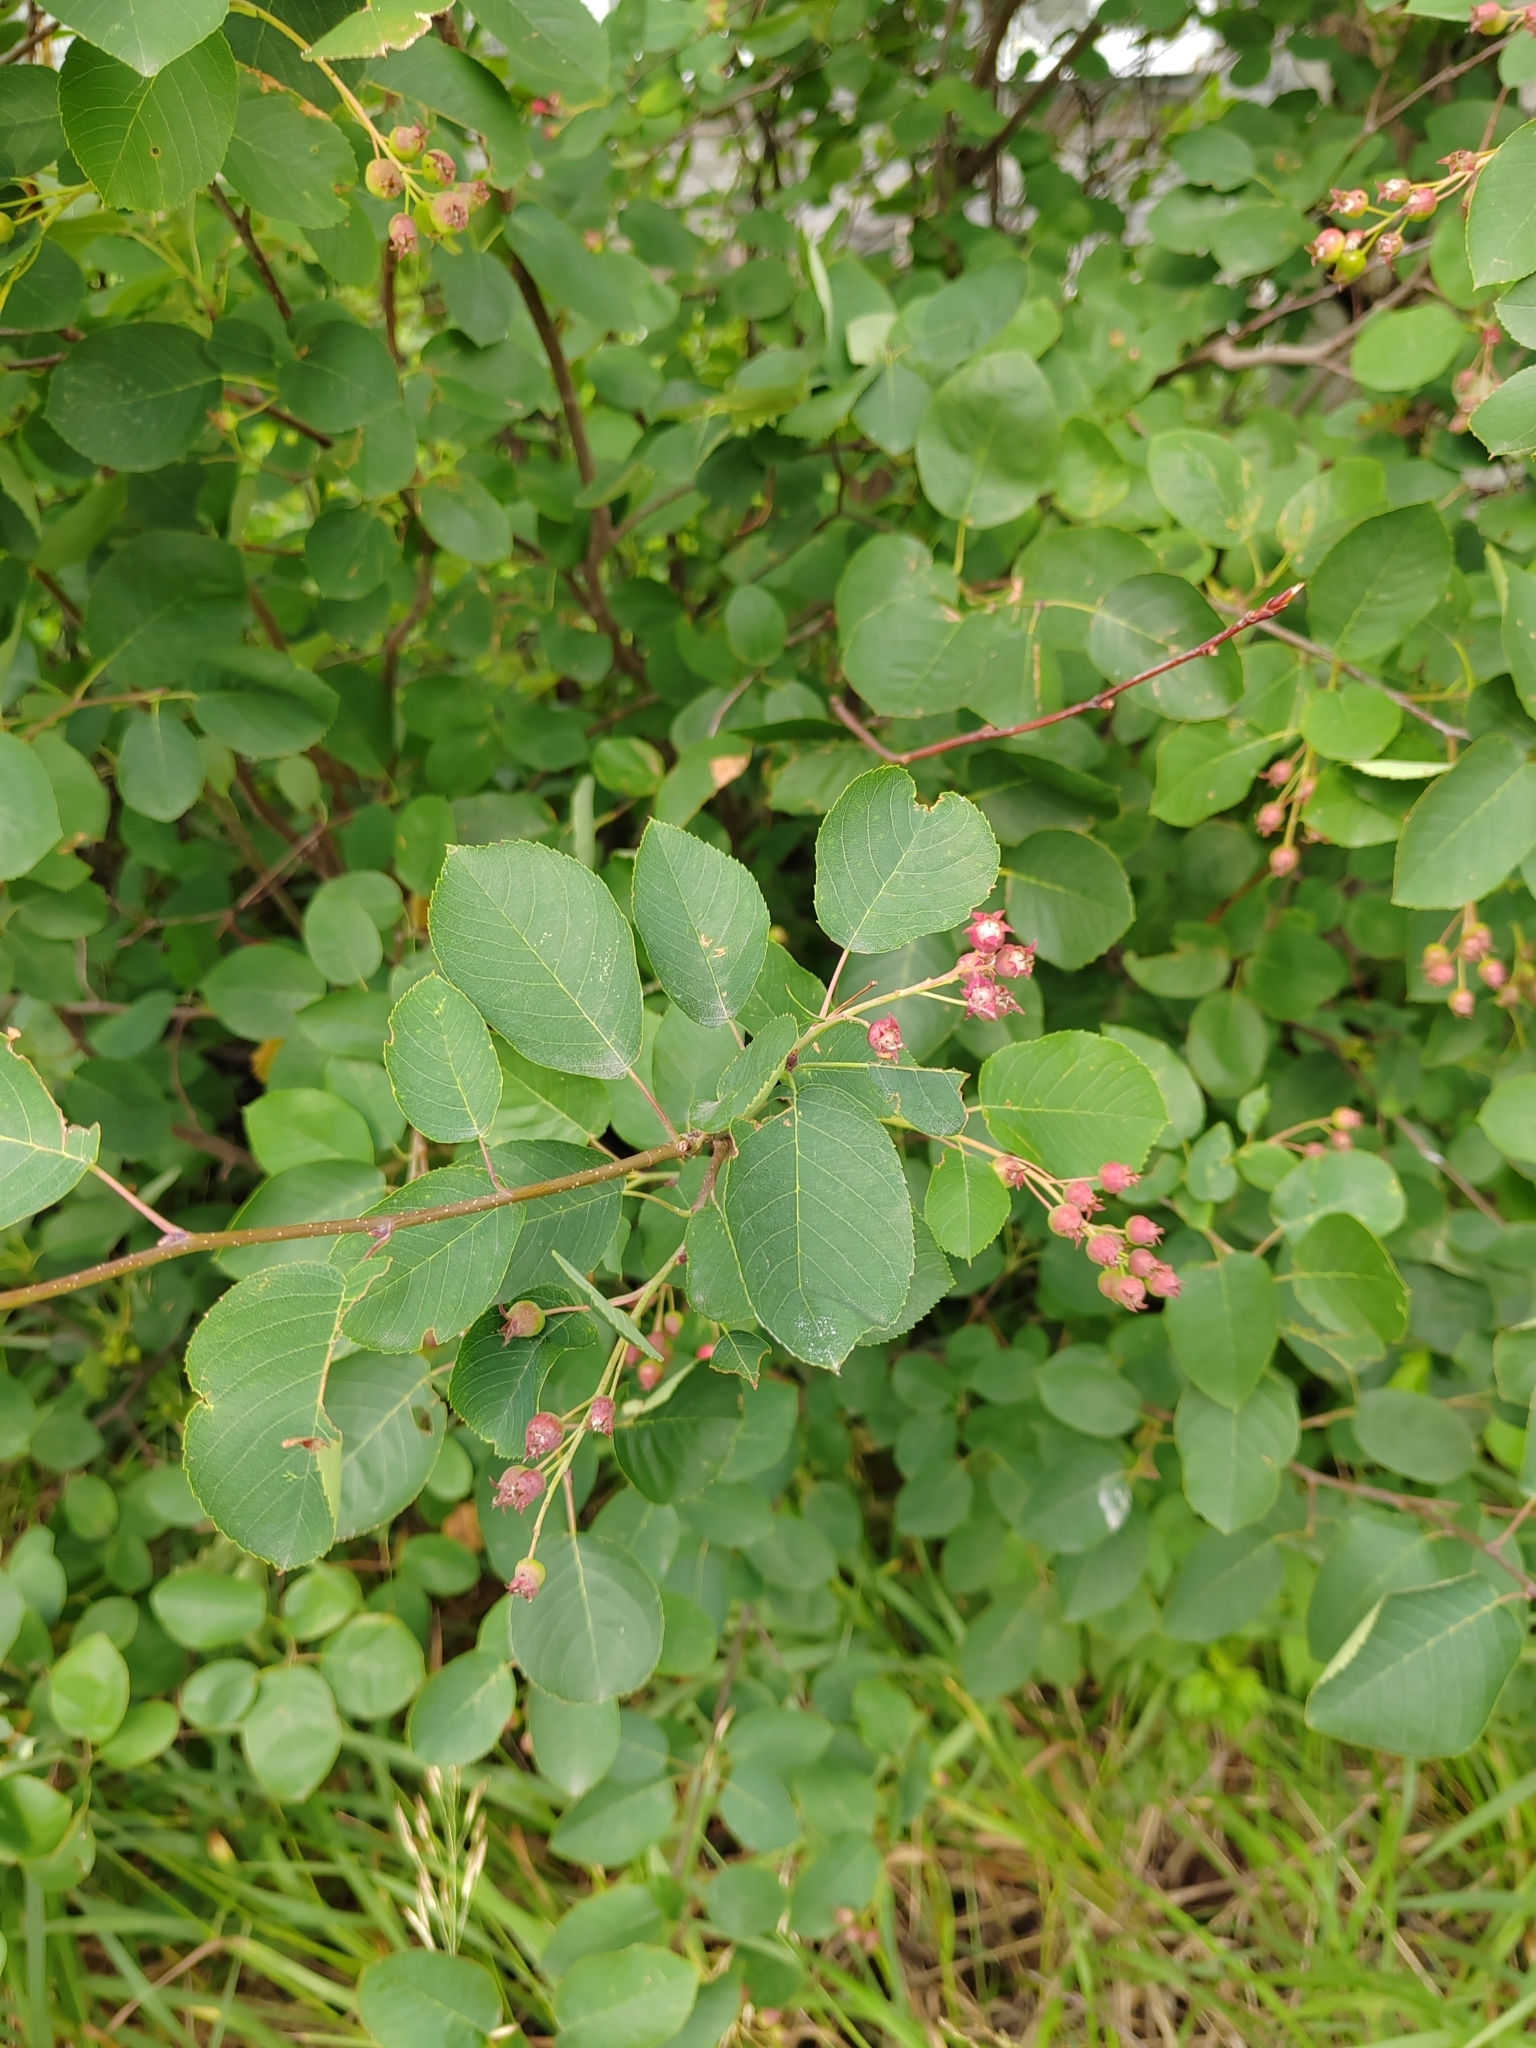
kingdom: Plantae
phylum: Tracheophyta
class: Magnoliopsida
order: Rosales
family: Rosaceae
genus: Amelanchier
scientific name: Amelanchier
